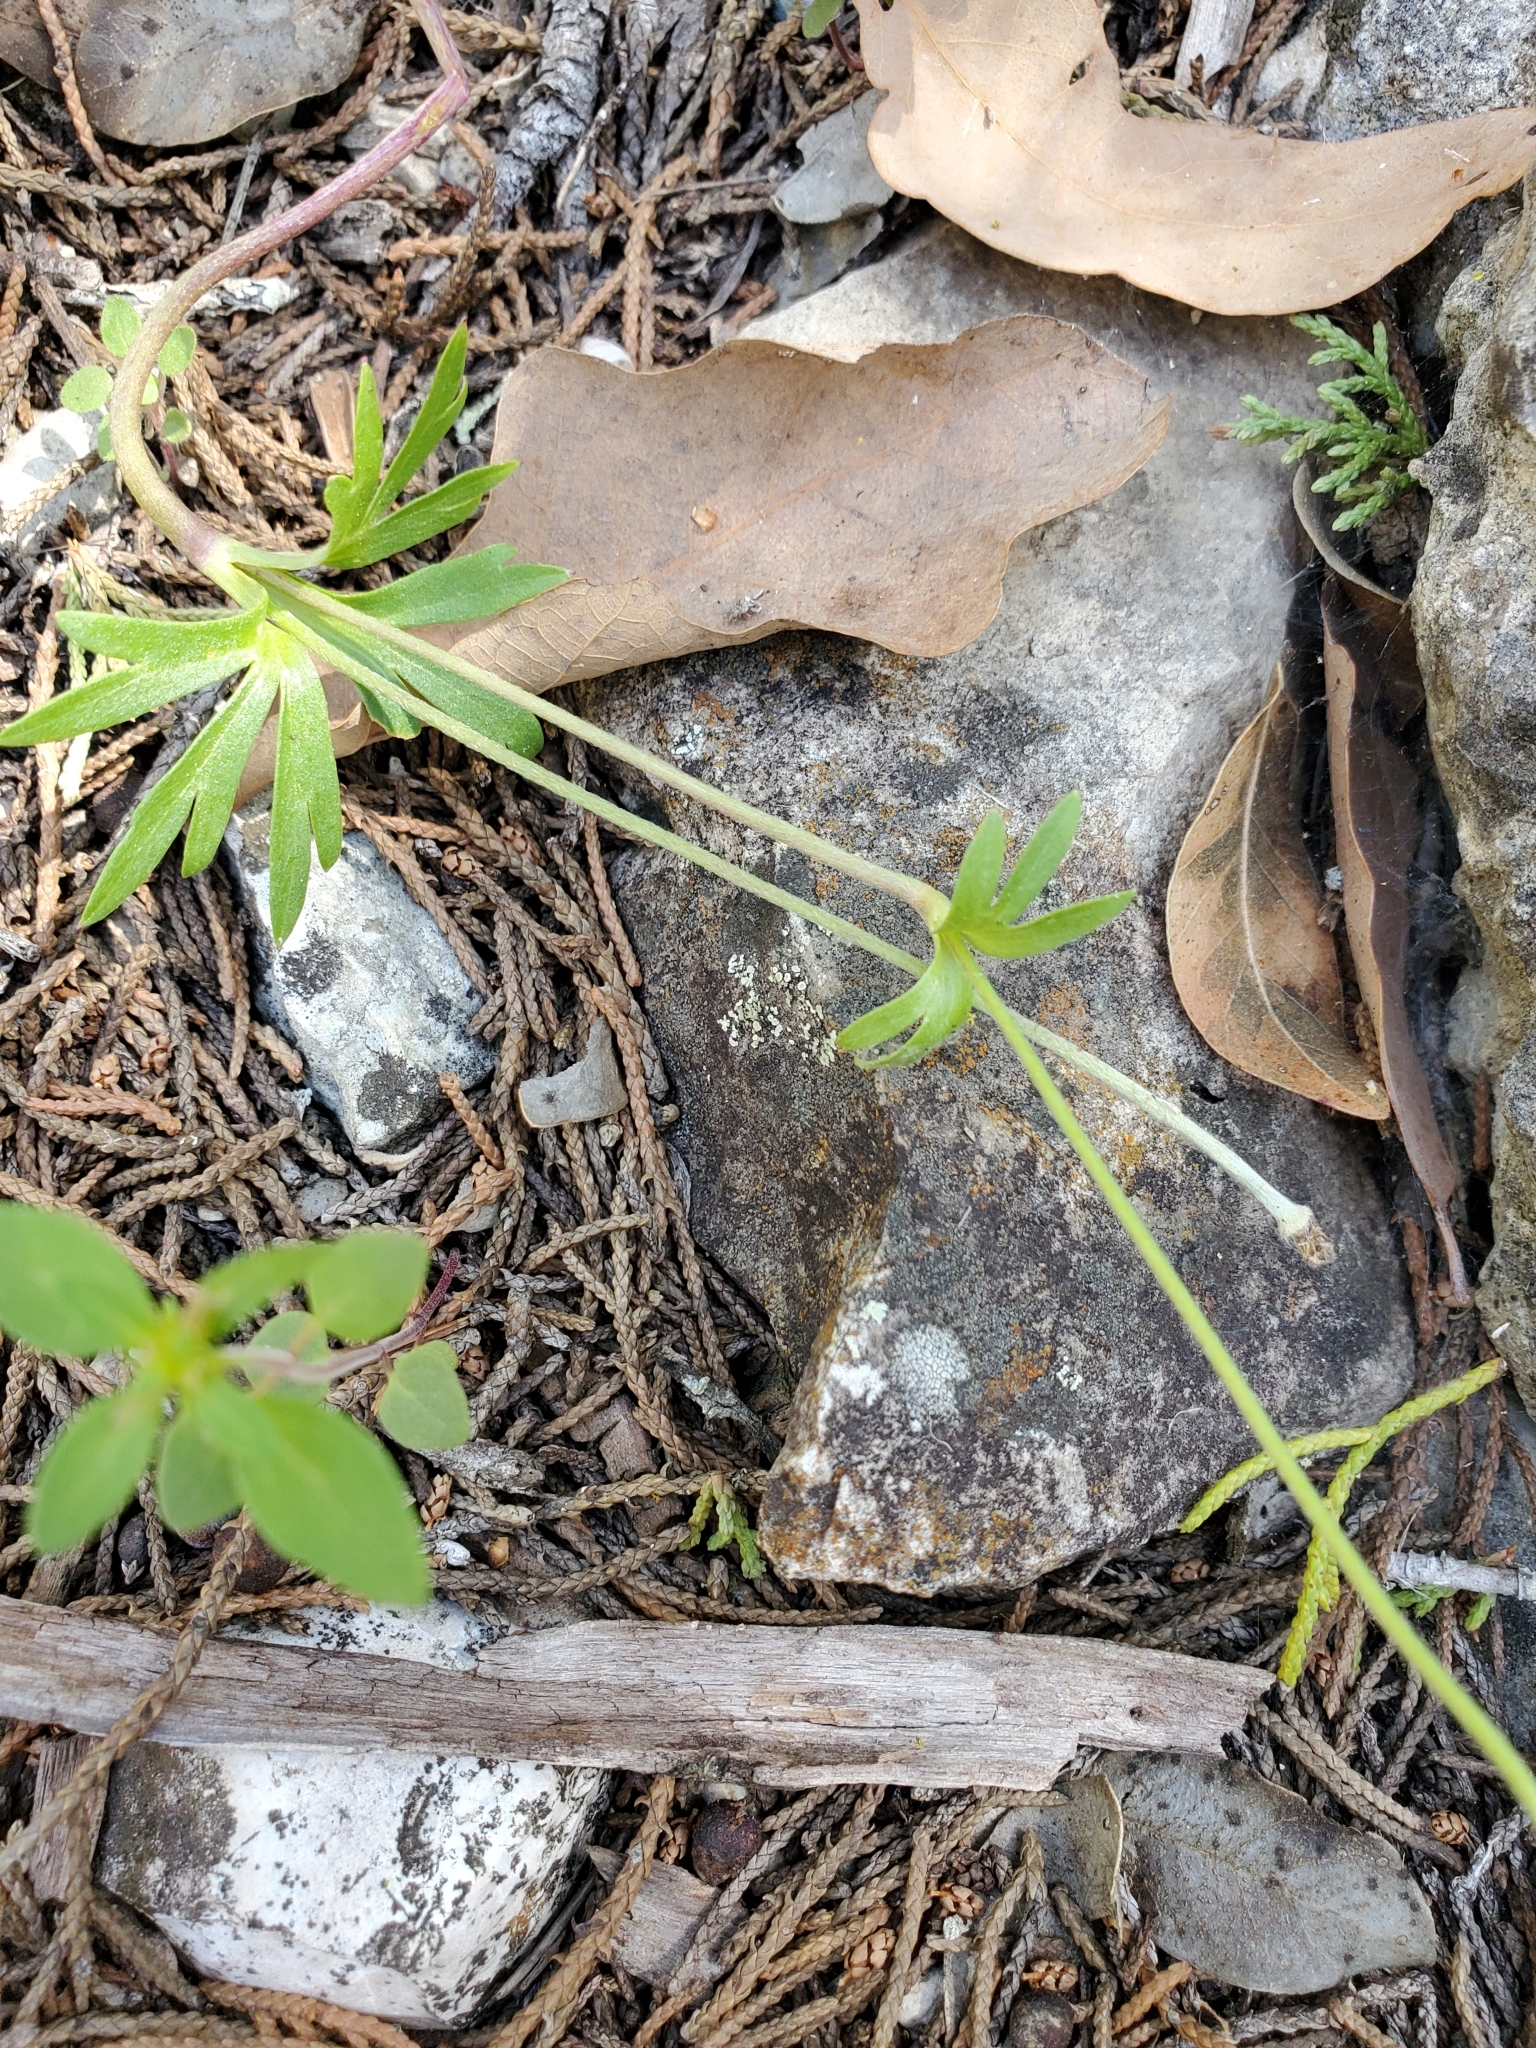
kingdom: Plantae
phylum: Tracheophyta
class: Magnoliopsida
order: Ranunculales
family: Ranunculaceae
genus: Anemone
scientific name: Anemone edwardsiana
